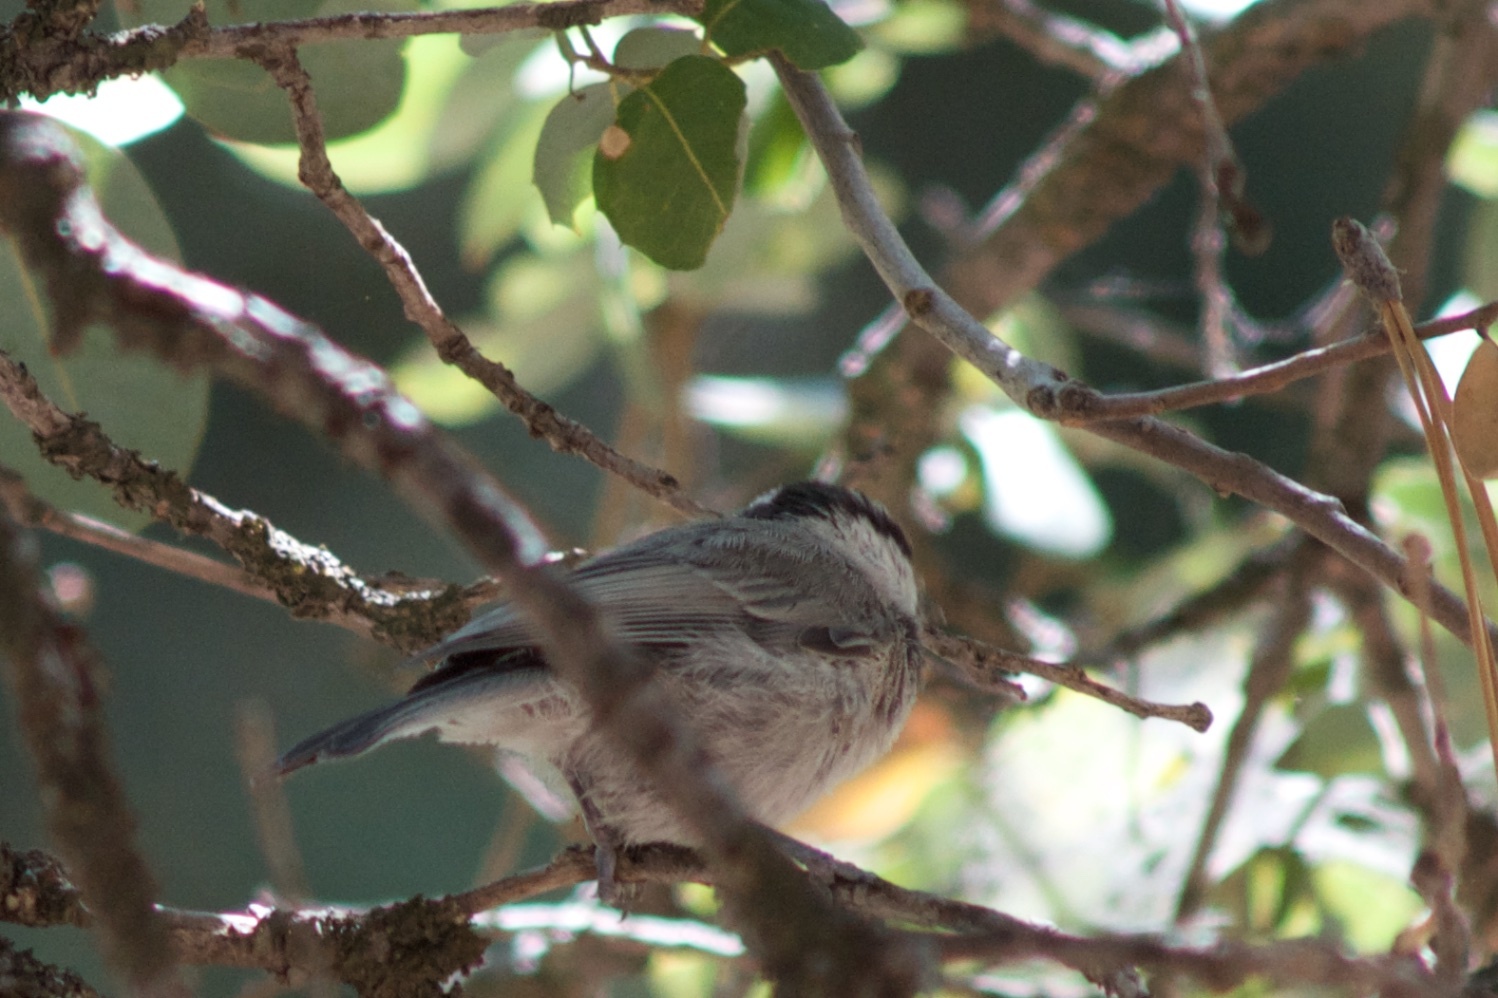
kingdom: Animalia
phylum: Chordata
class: Aves
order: Passeriformes
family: Paridae
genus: Poecile
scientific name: Poecile gambeli
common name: Mountain chickadee
